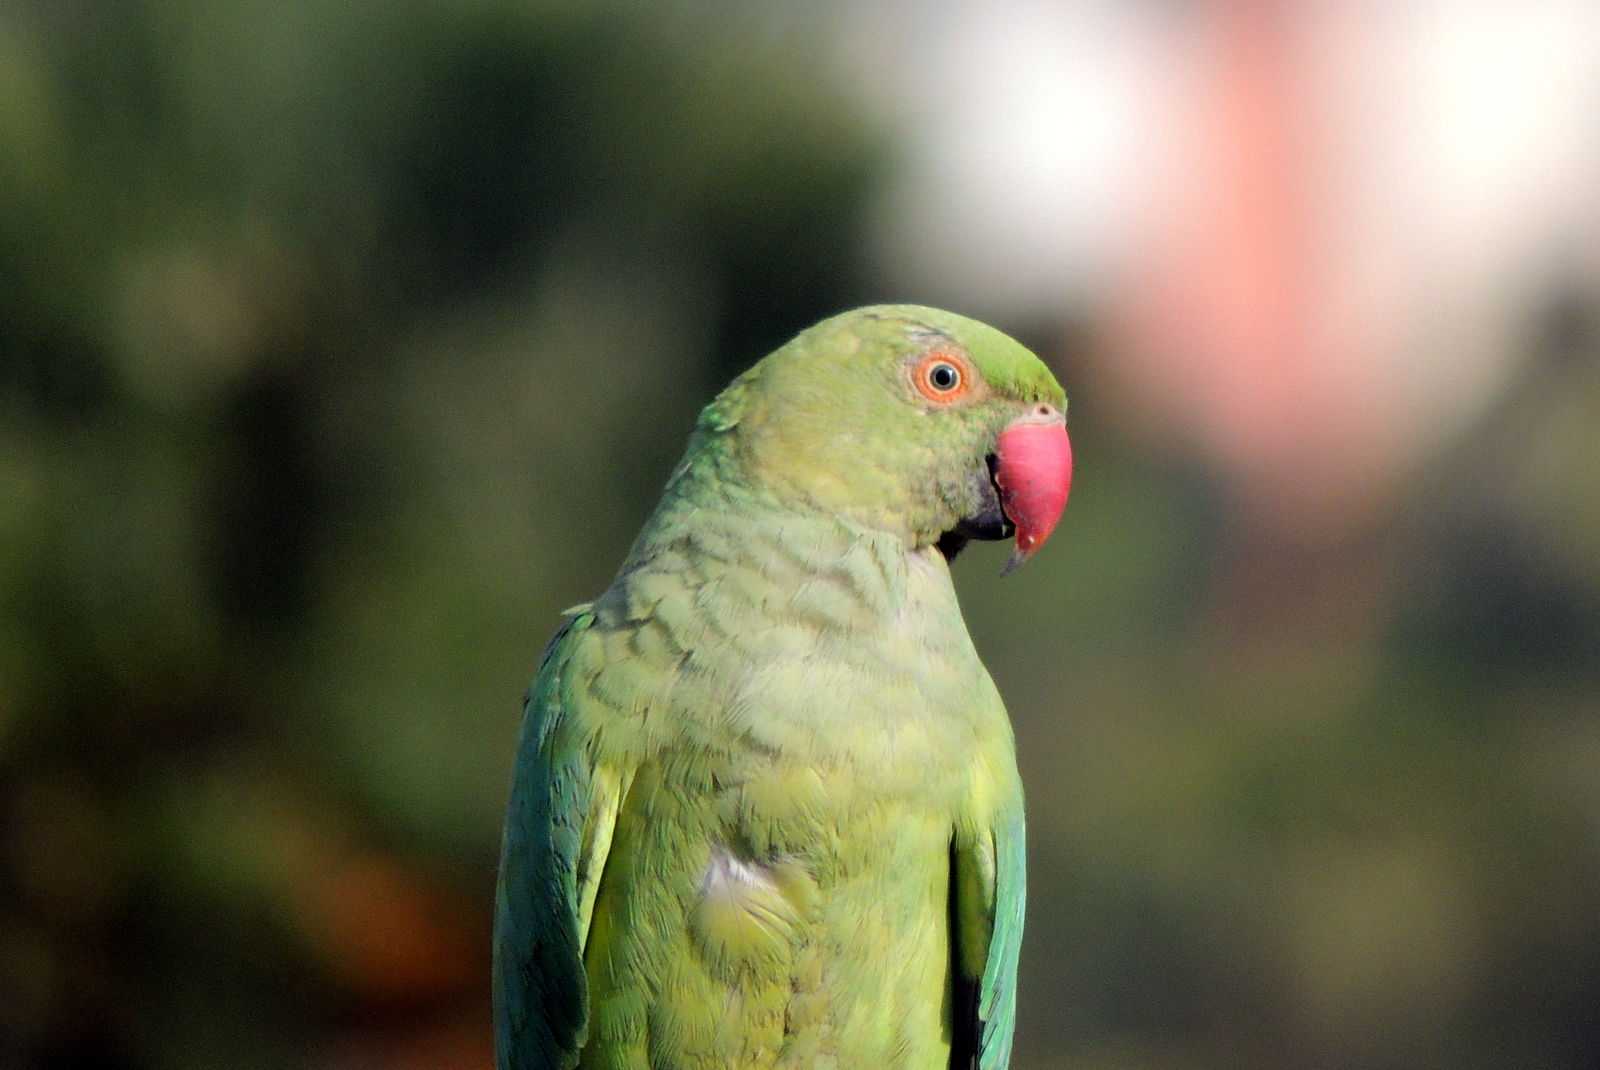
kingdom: Animalia
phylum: Chordata
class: Aves
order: Psittaciformes
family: Psittacidae
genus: Psittacula
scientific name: Psittacula krameri
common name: Rose-ringed parakeet
